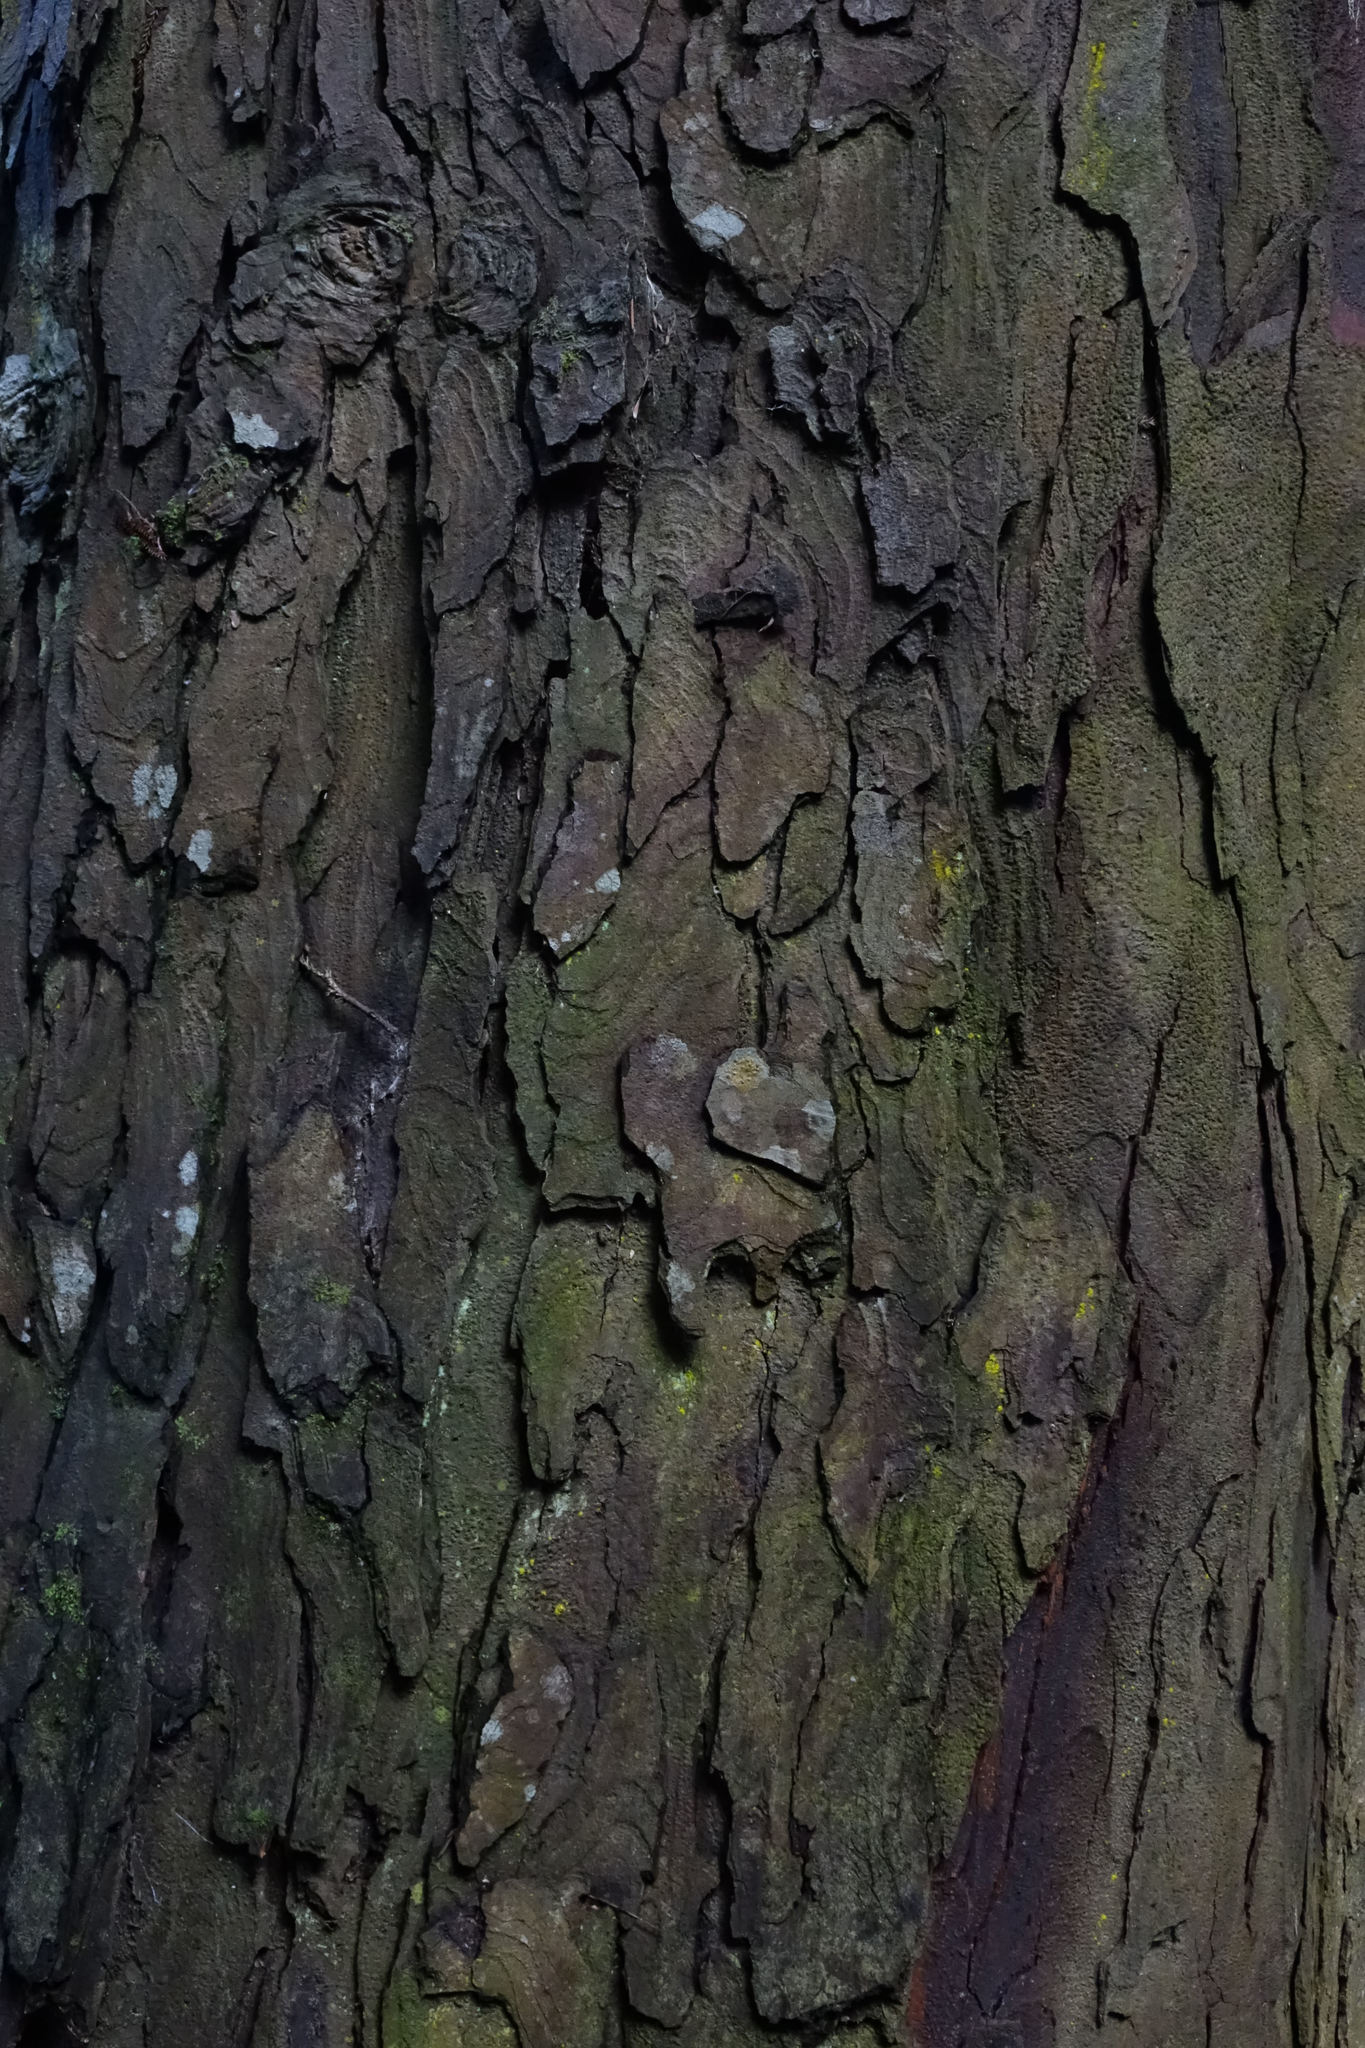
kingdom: Plantae
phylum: Tracheophyta
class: Pinopsida
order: Pinales
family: Podocarpaceae
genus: Dacrydium
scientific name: Dacrydium cupressinum
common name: Red pine
